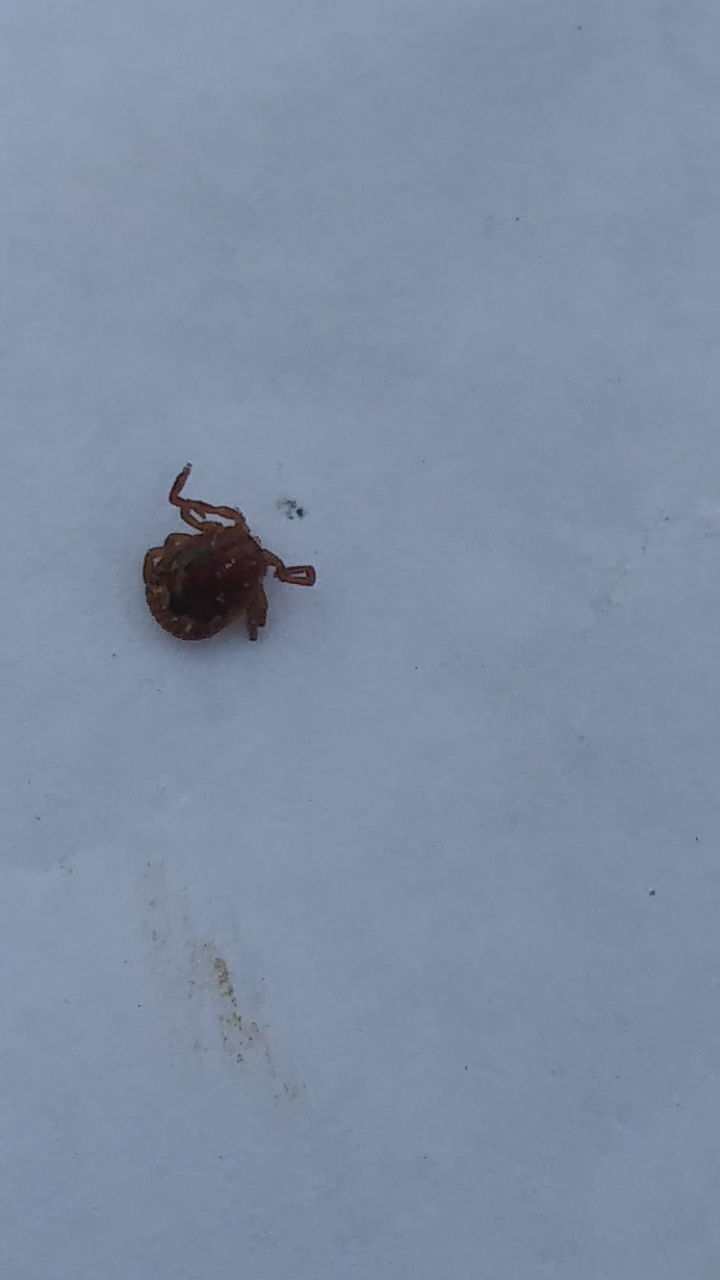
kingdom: Animalia
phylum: Arthropoda
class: Arachnida
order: Ixodida
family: Ixodidae
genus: Amblyomma
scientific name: Amblyomma americanum
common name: Lone star tick
